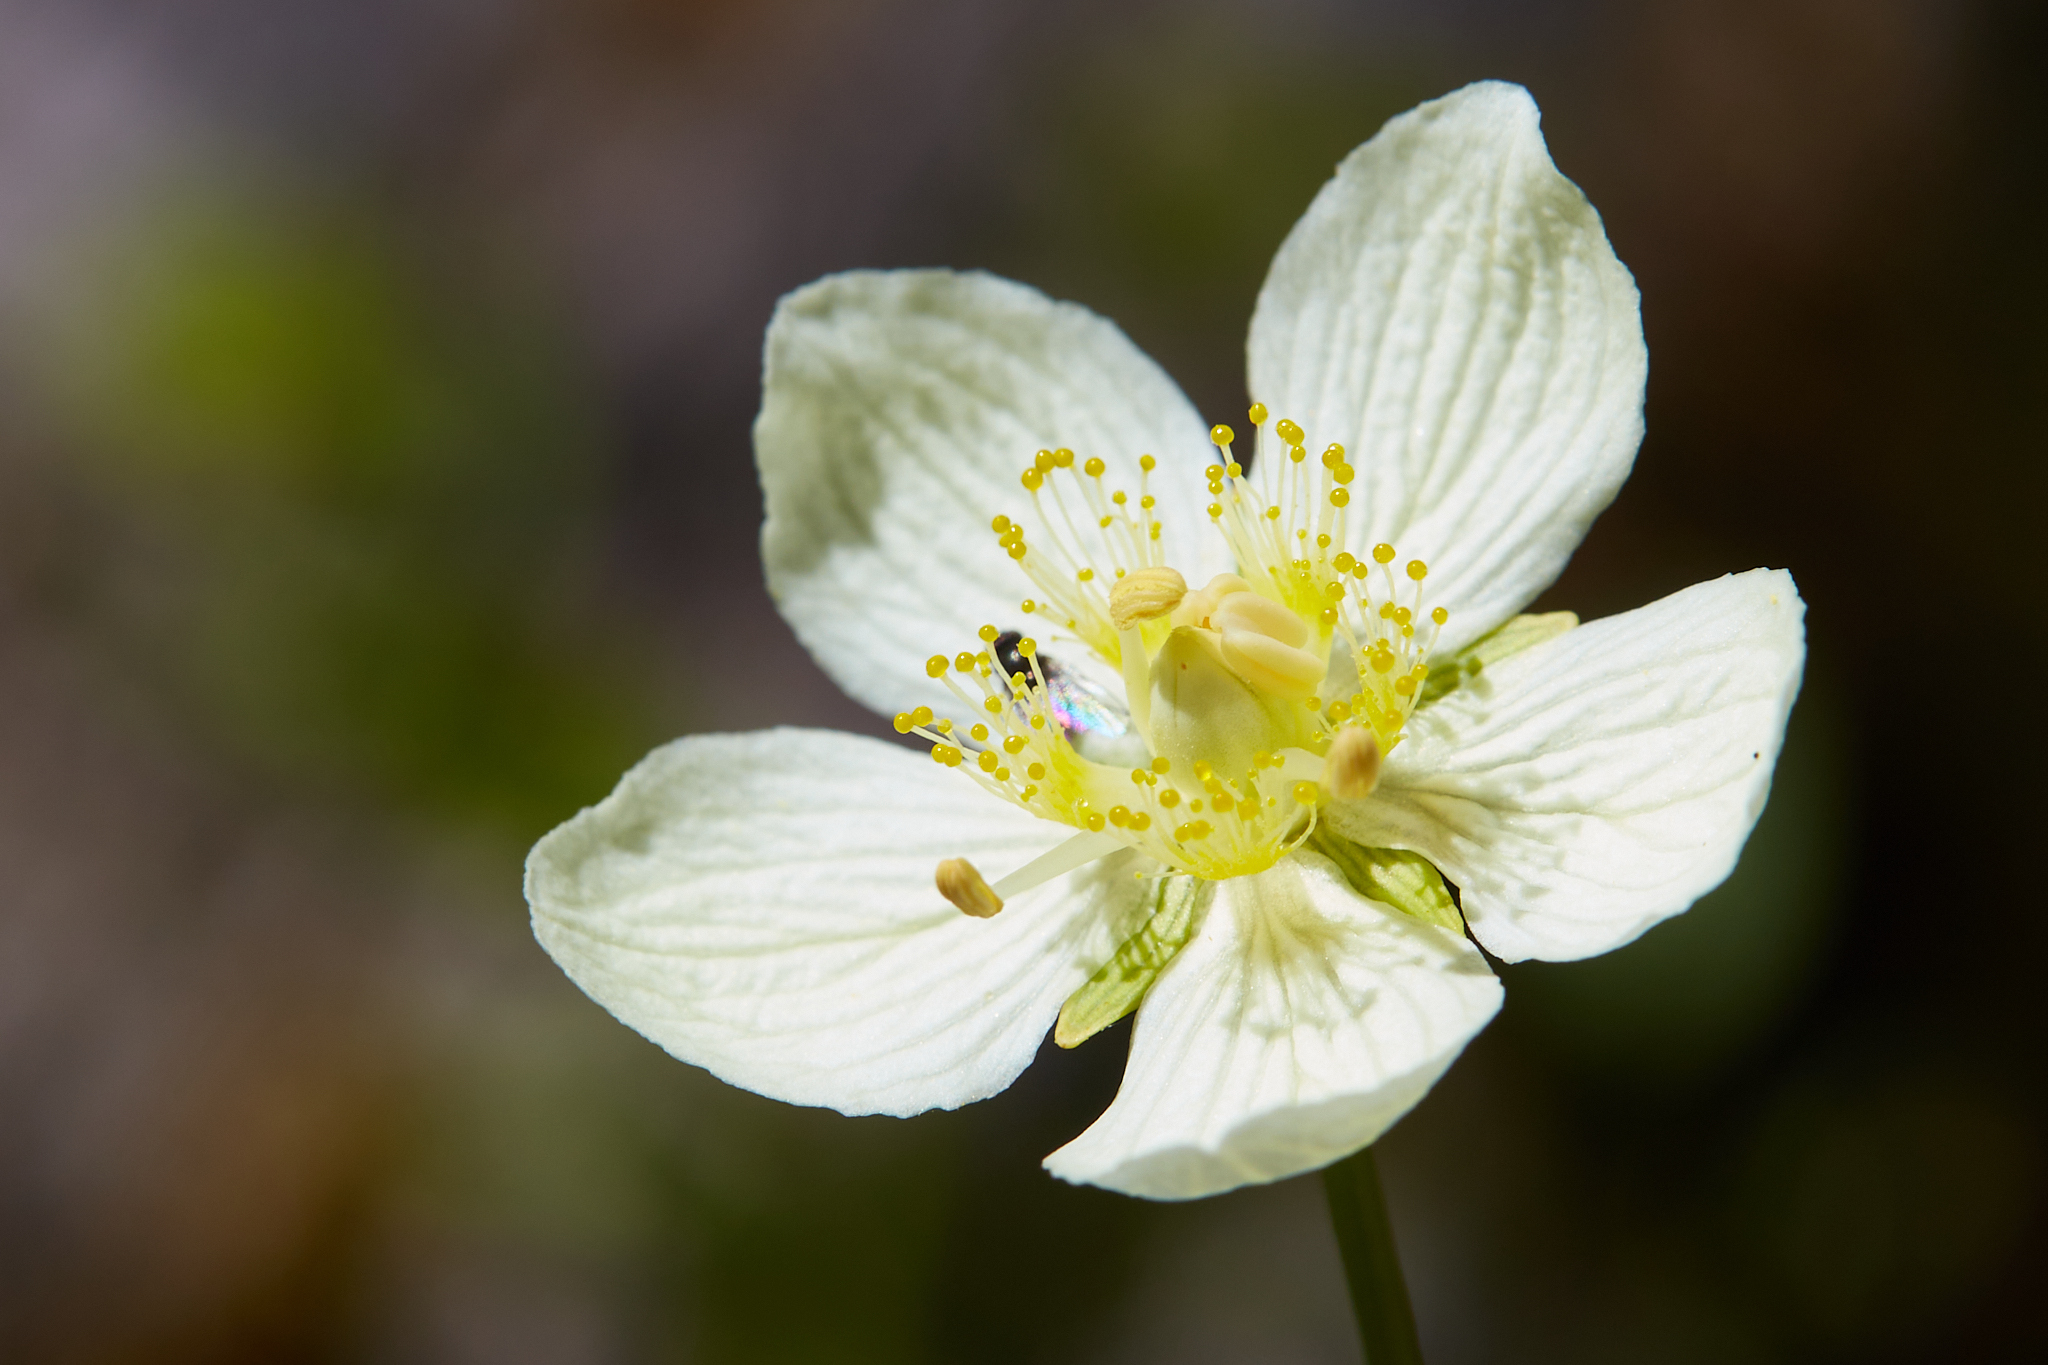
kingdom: Plantae
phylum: Tracheophyta
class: Magnoliopsida
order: Celastrales
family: Parnassiaceae
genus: Parnassia
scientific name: Parnassia palustris
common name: Grass-of-parnassus
